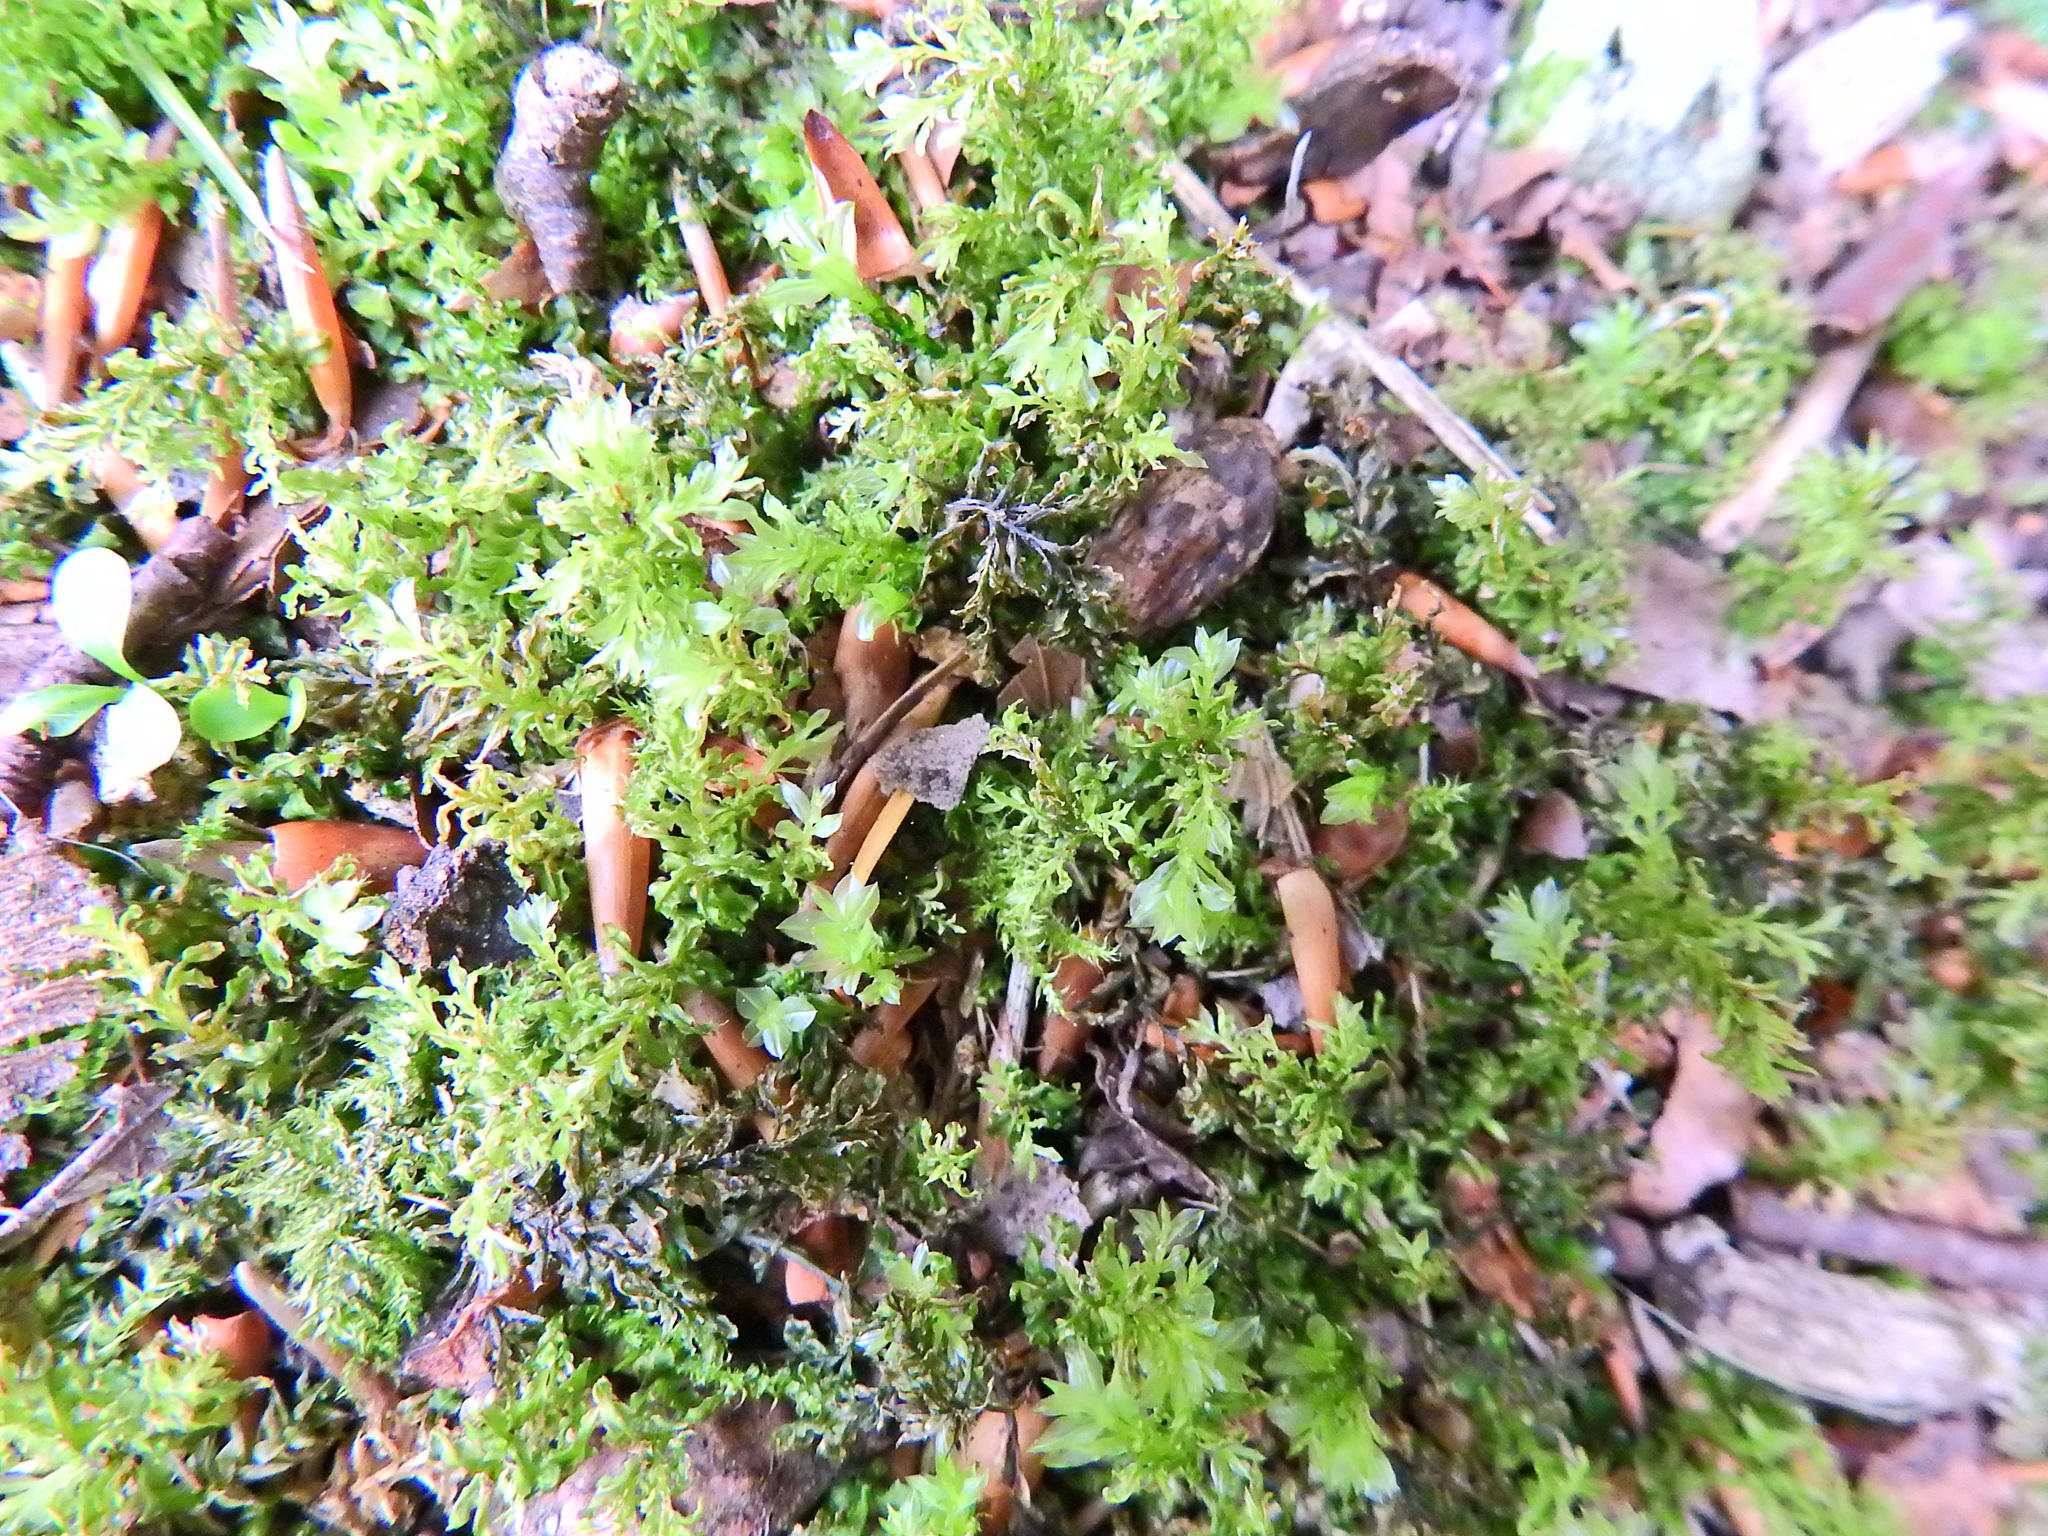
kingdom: Plantae
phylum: Bryophyta
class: Bryopsida
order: Bryales
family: Mniaceae
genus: Plagiomnium
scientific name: Plagiomnium undulatum
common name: Hart's-tongue thyme-moss
